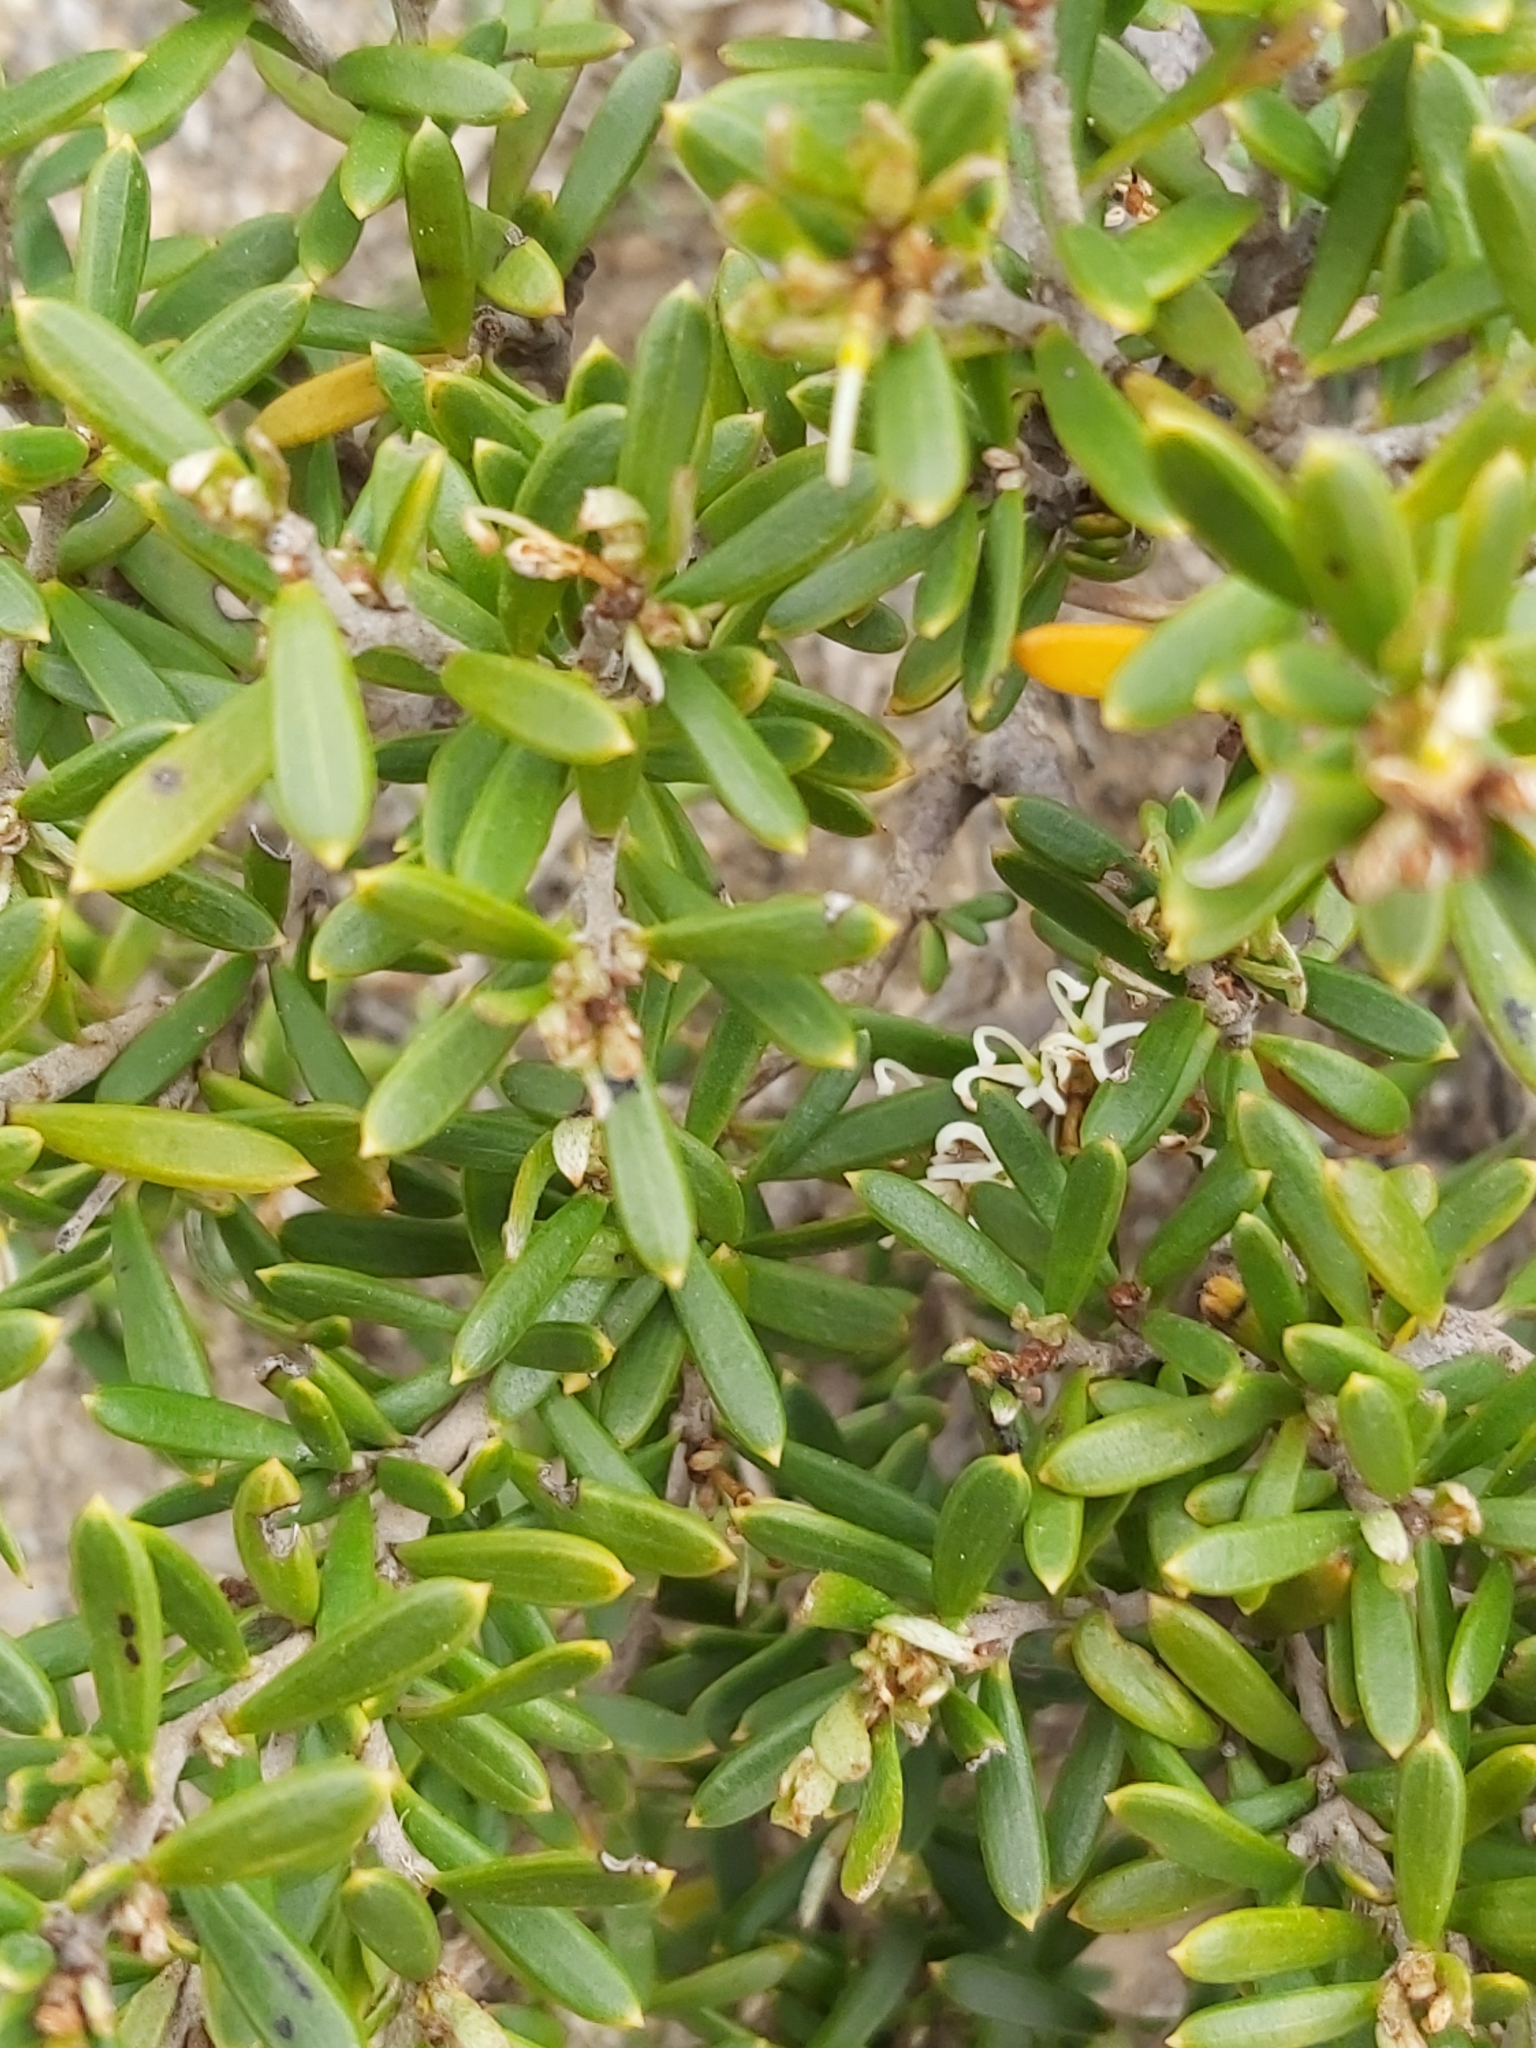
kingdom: Plantae
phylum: Tracheophyta
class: Magnoliopsida
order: Proteales
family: Proteaceae
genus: Grevillea
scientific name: Grevillea australis
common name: Alpine grevillea
